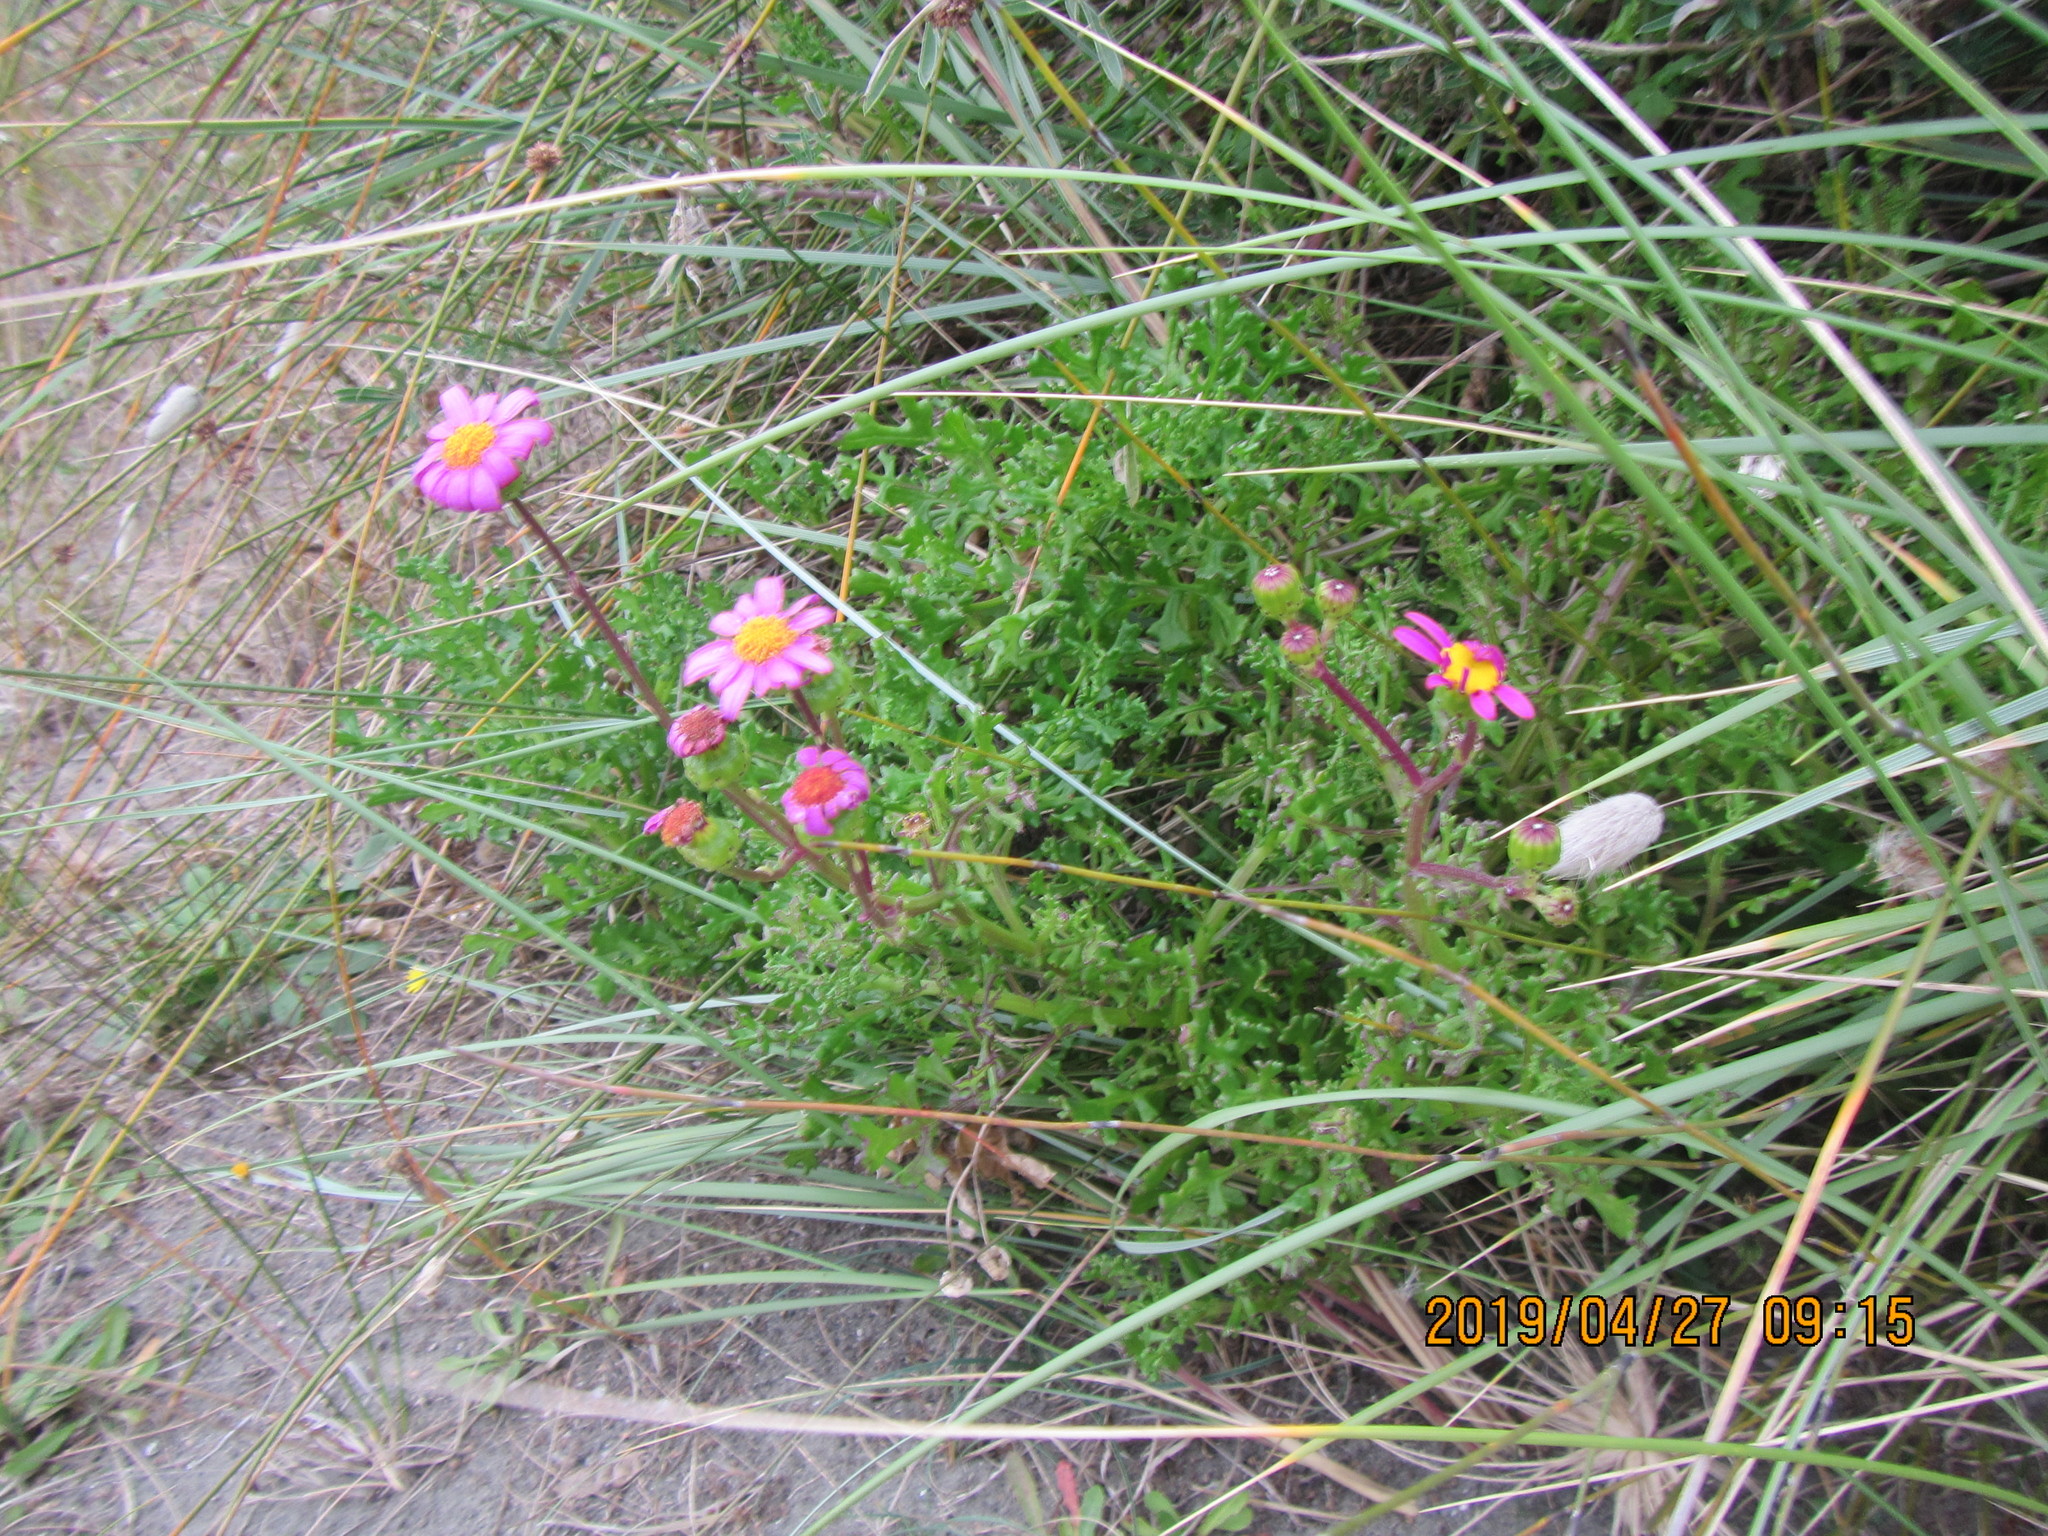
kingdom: Plantae
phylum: Tracheophyta
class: Magnoliopsida
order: Asterales
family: Asteraceae
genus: Senecio
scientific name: Senecio elegans
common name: Purple groundsel
